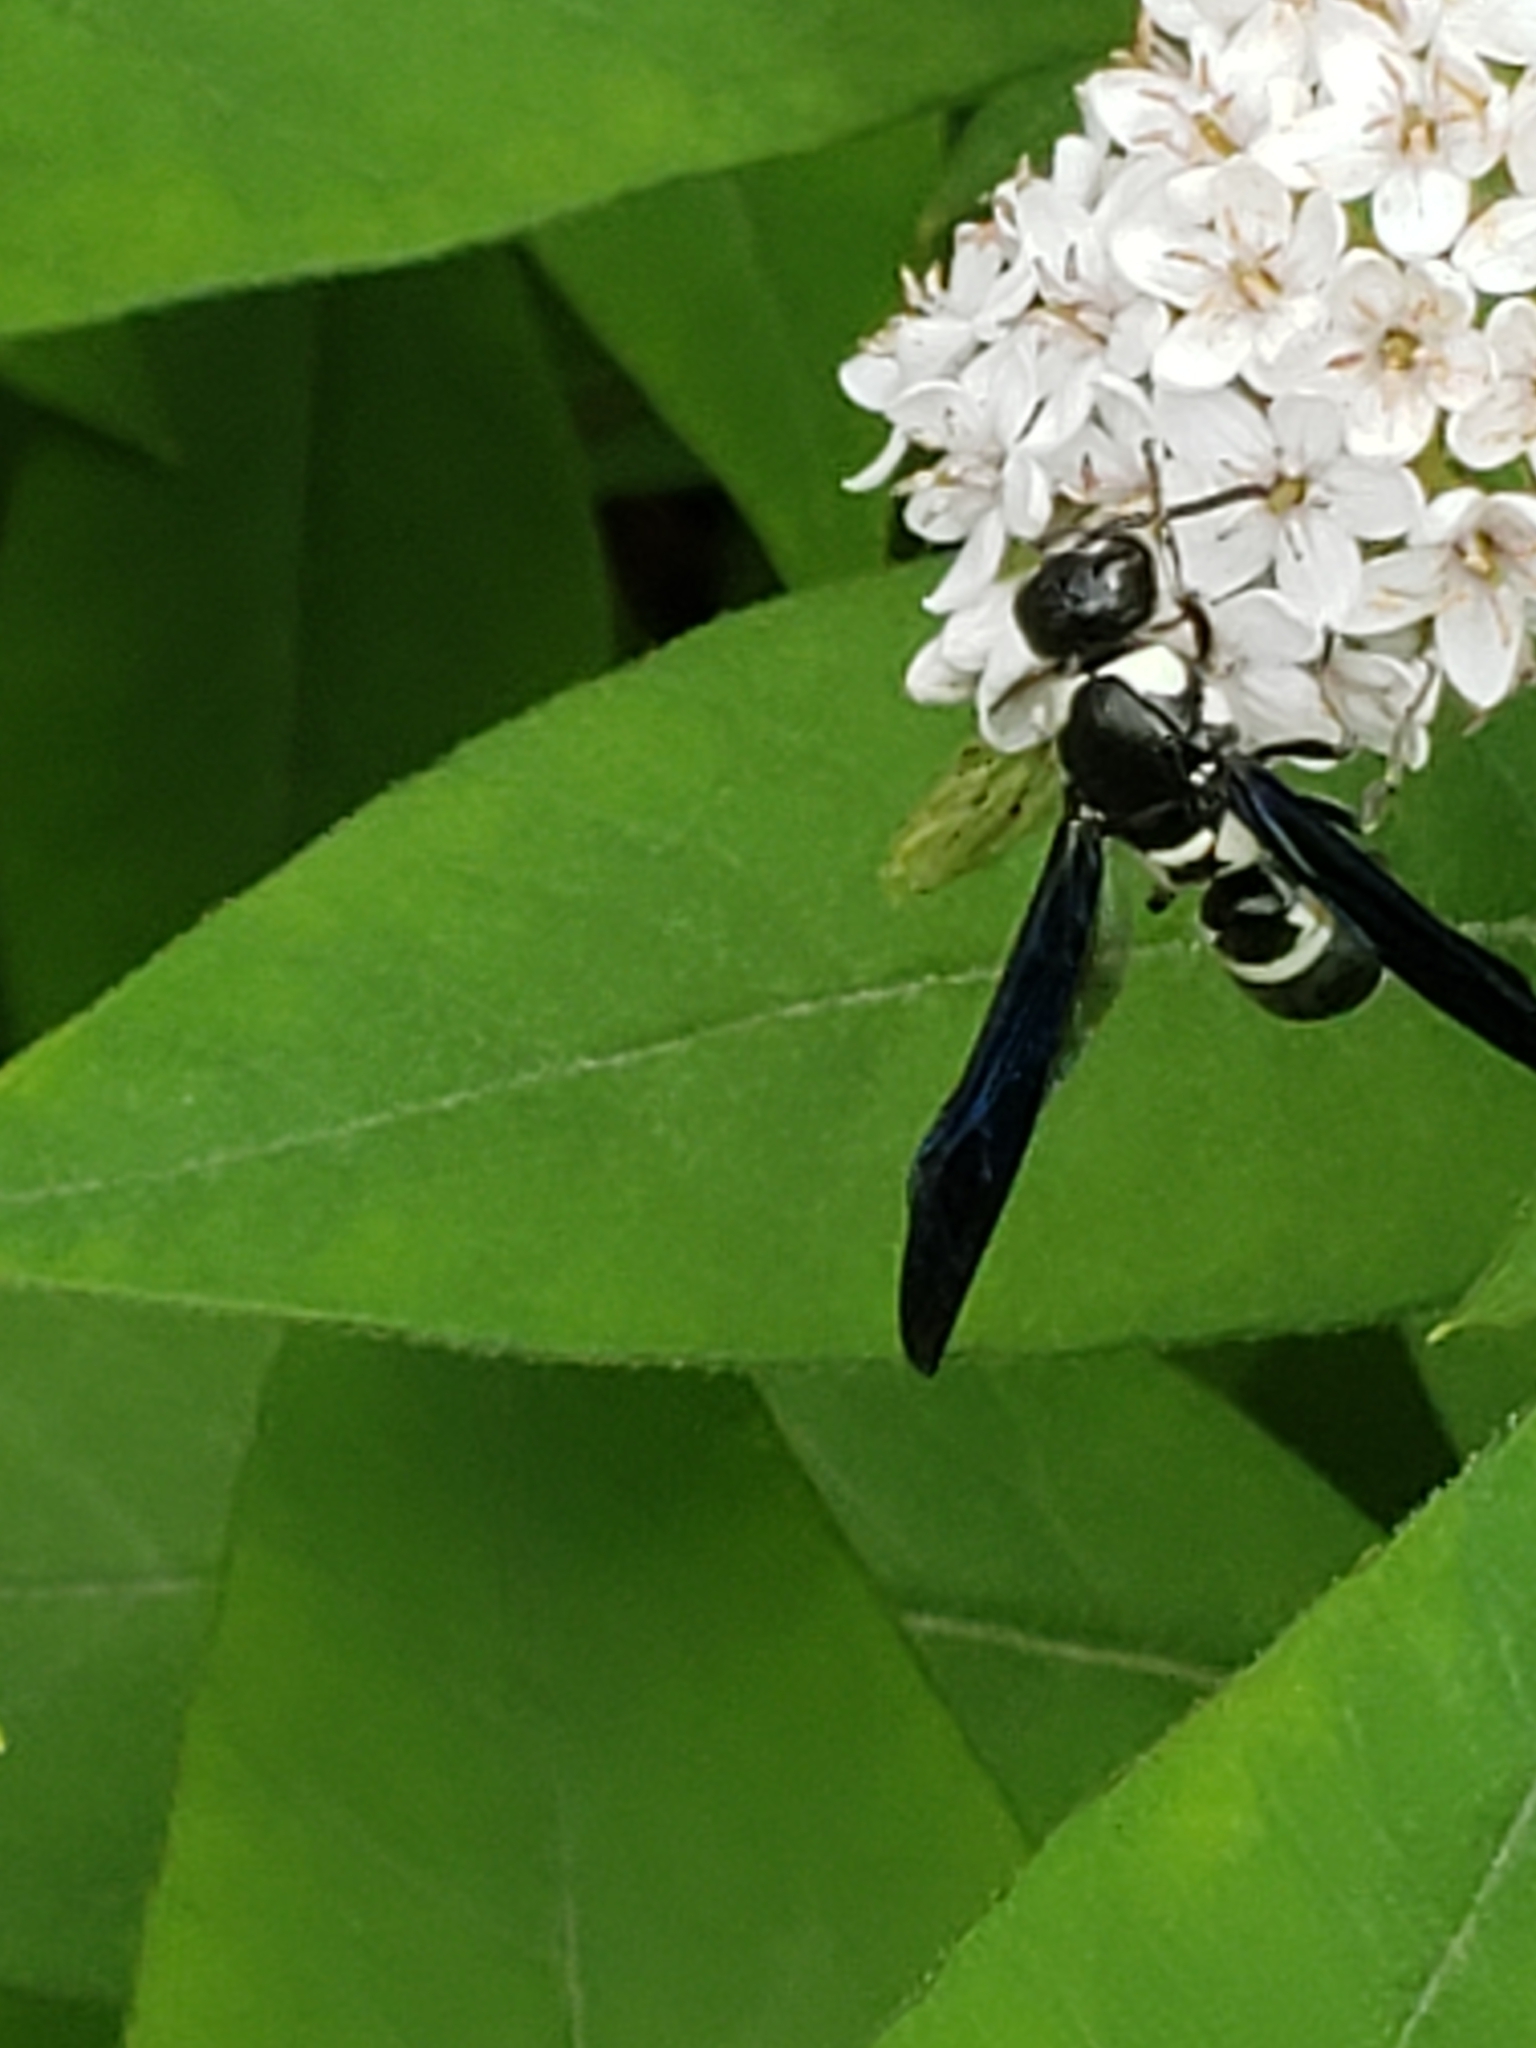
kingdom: Animalia
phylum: Arthropoda
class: Insecta
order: Hymenoptera
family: Eumenidae
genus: Pseudodynerus
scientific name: Pseudodynerus quadrisectus
